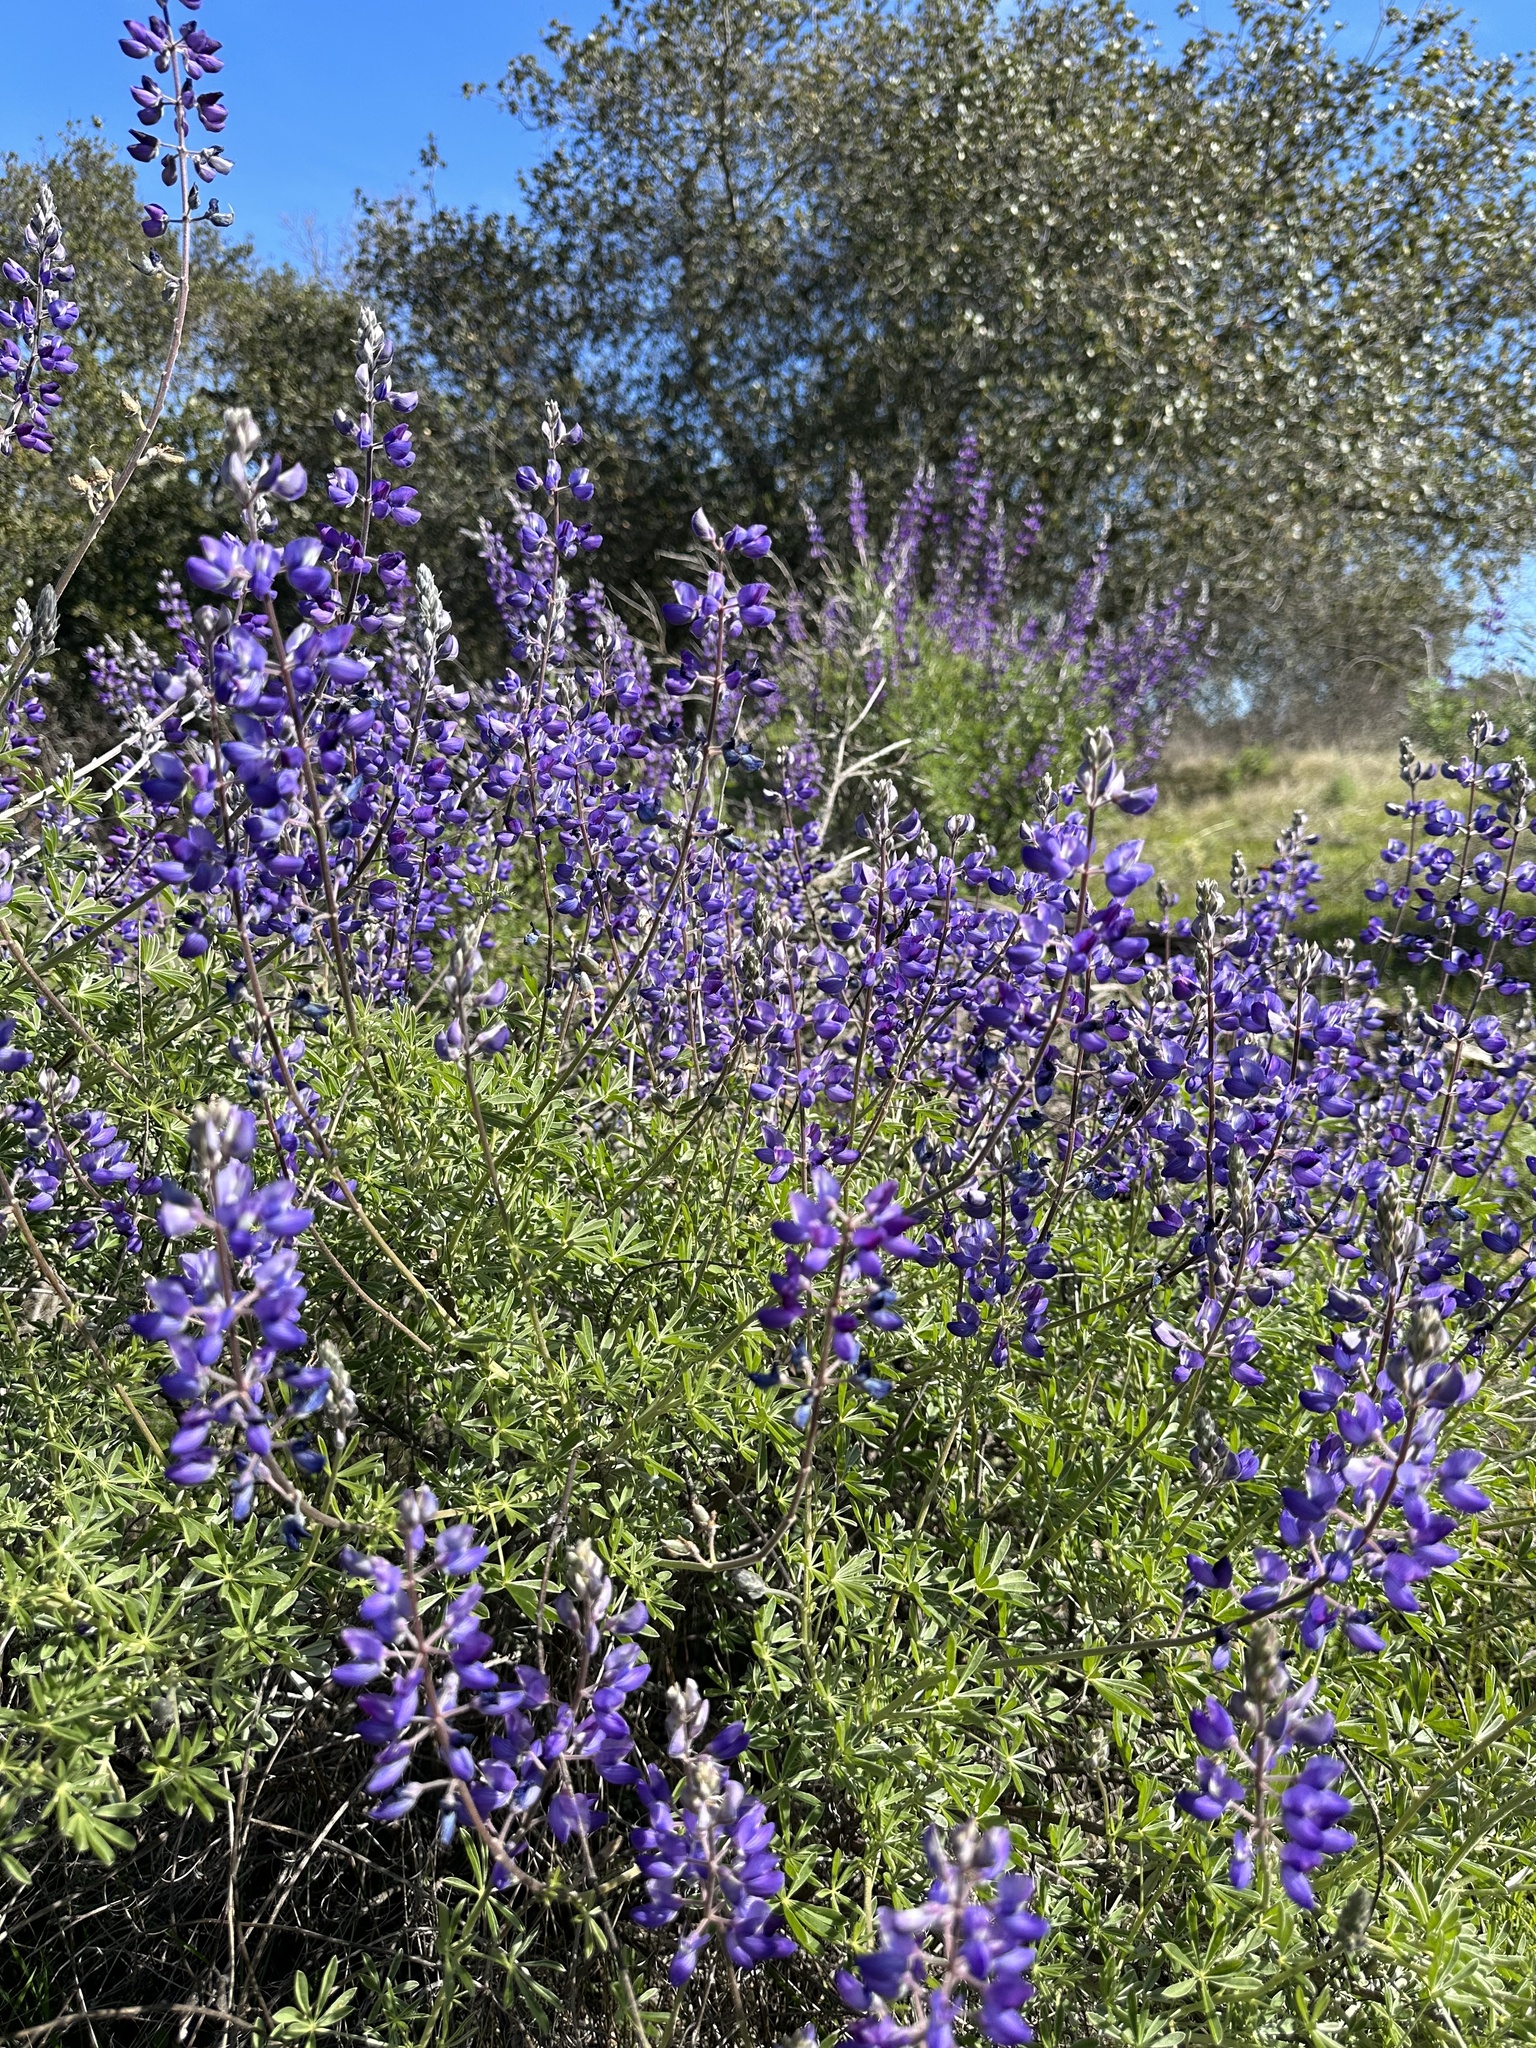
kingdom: Plantae
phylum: Tracheophyta
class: Magnoliopsida
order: Fabales
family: Fabaceae
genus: Lupinus
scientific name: Lupinus albifrons
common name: Foothill lupine
